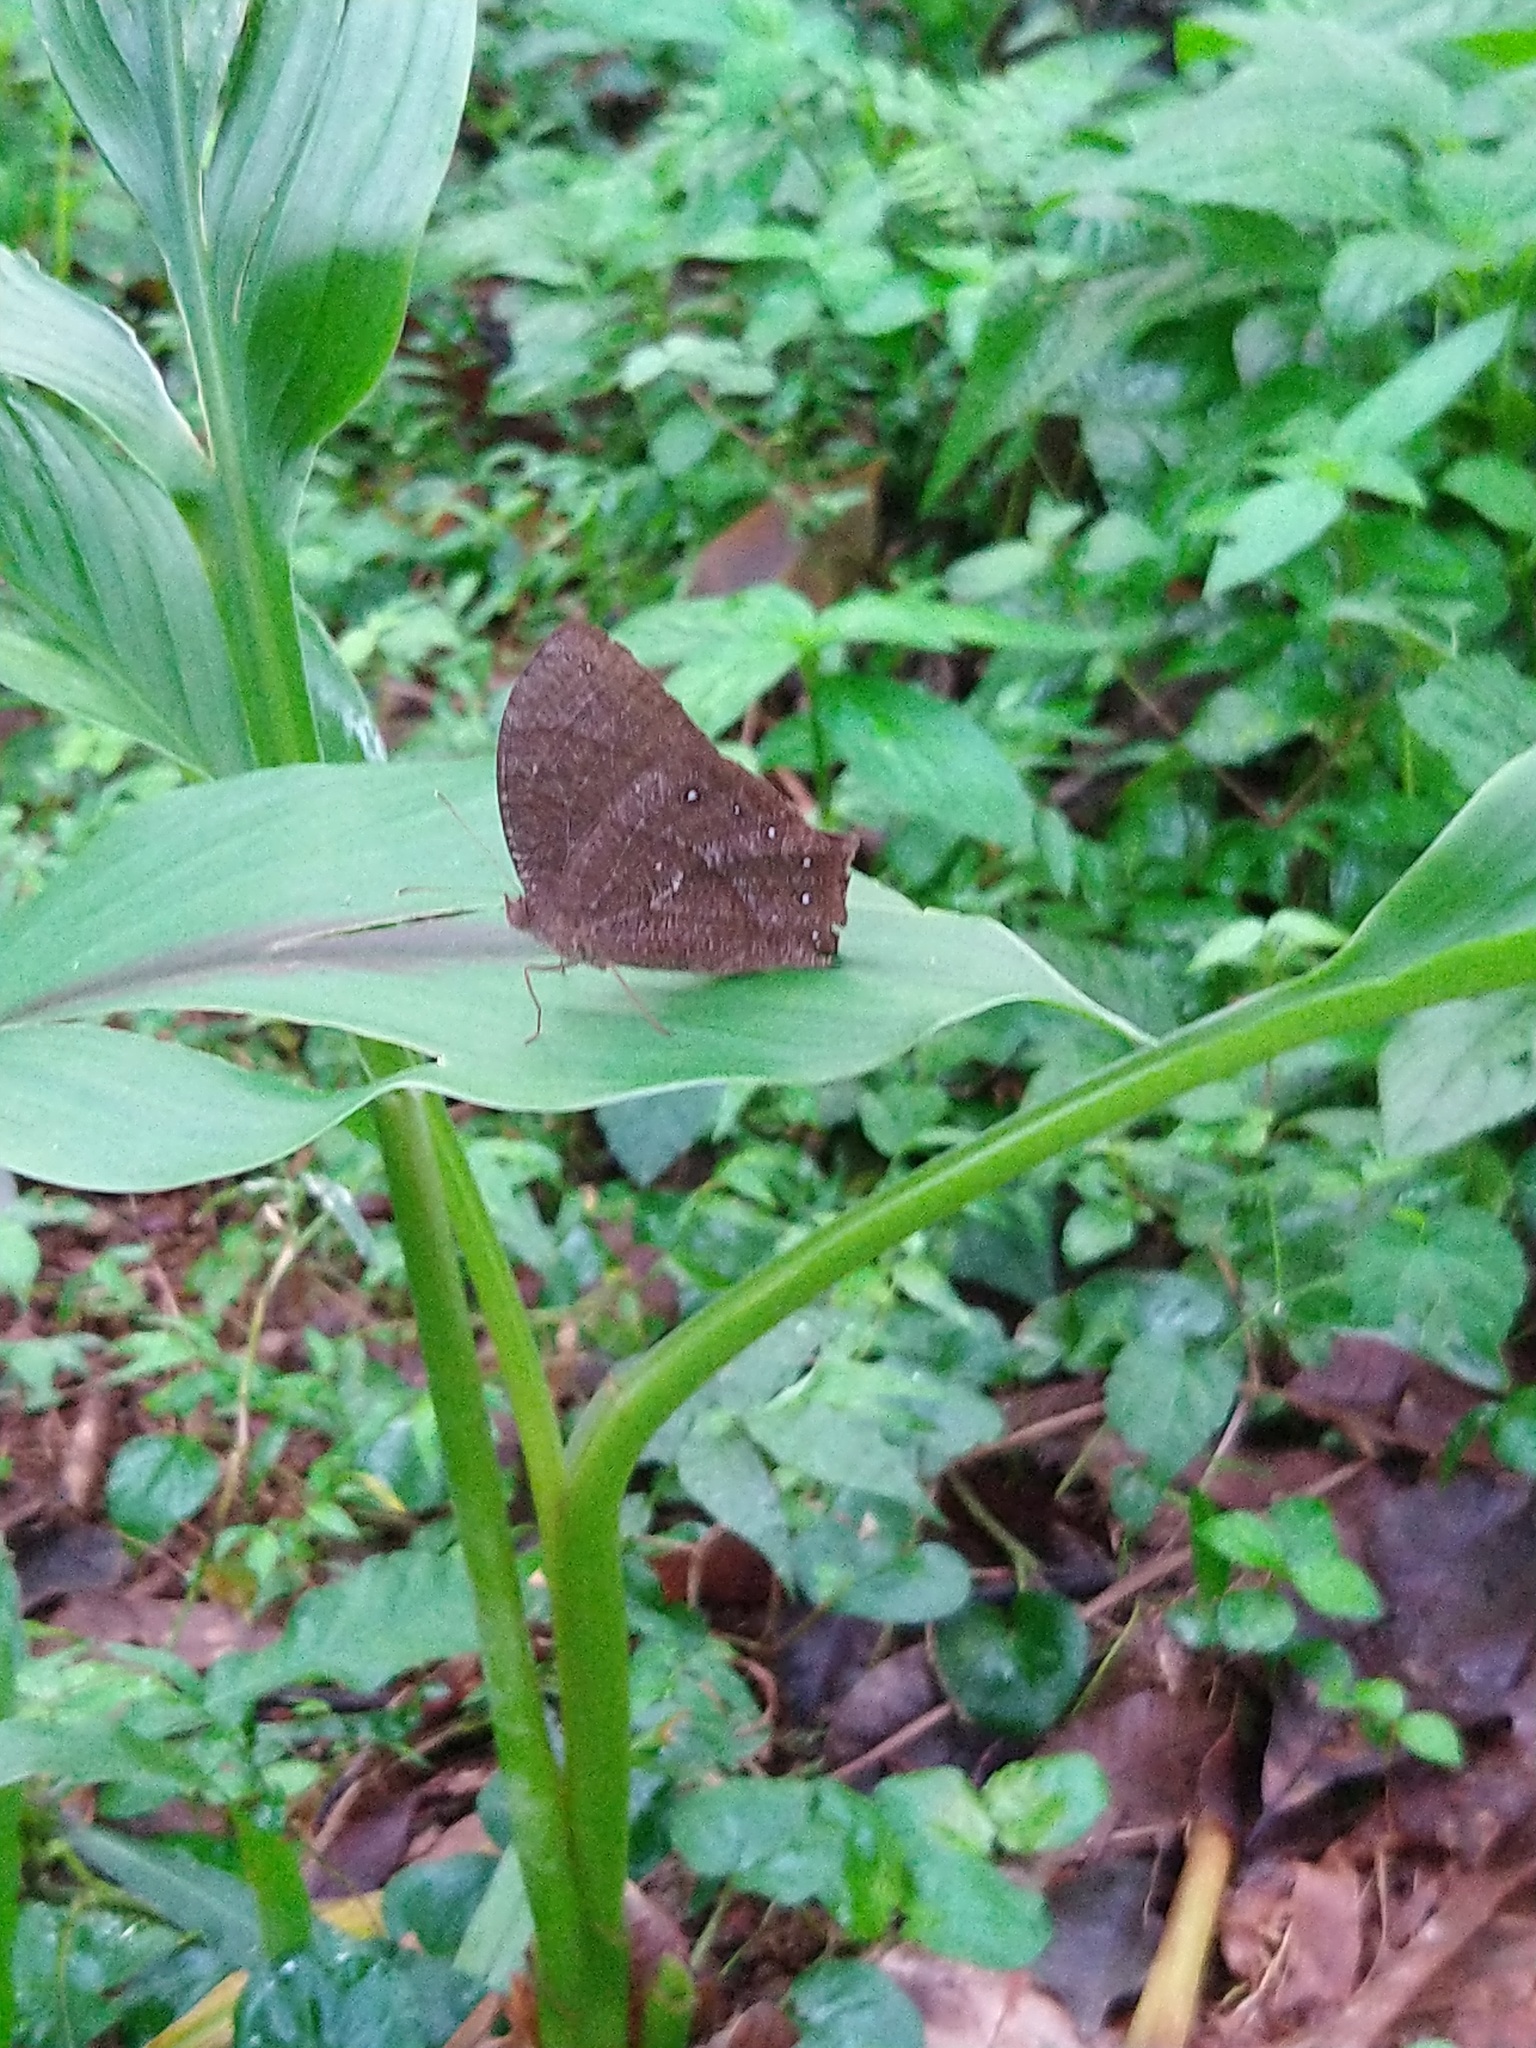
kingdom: Animalia
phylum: Arthropoda
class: Insecta
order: Lepidoptera
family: Nymphalidae
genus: Melanitis
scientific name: Melanitis phedima
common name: Dark evening brown
